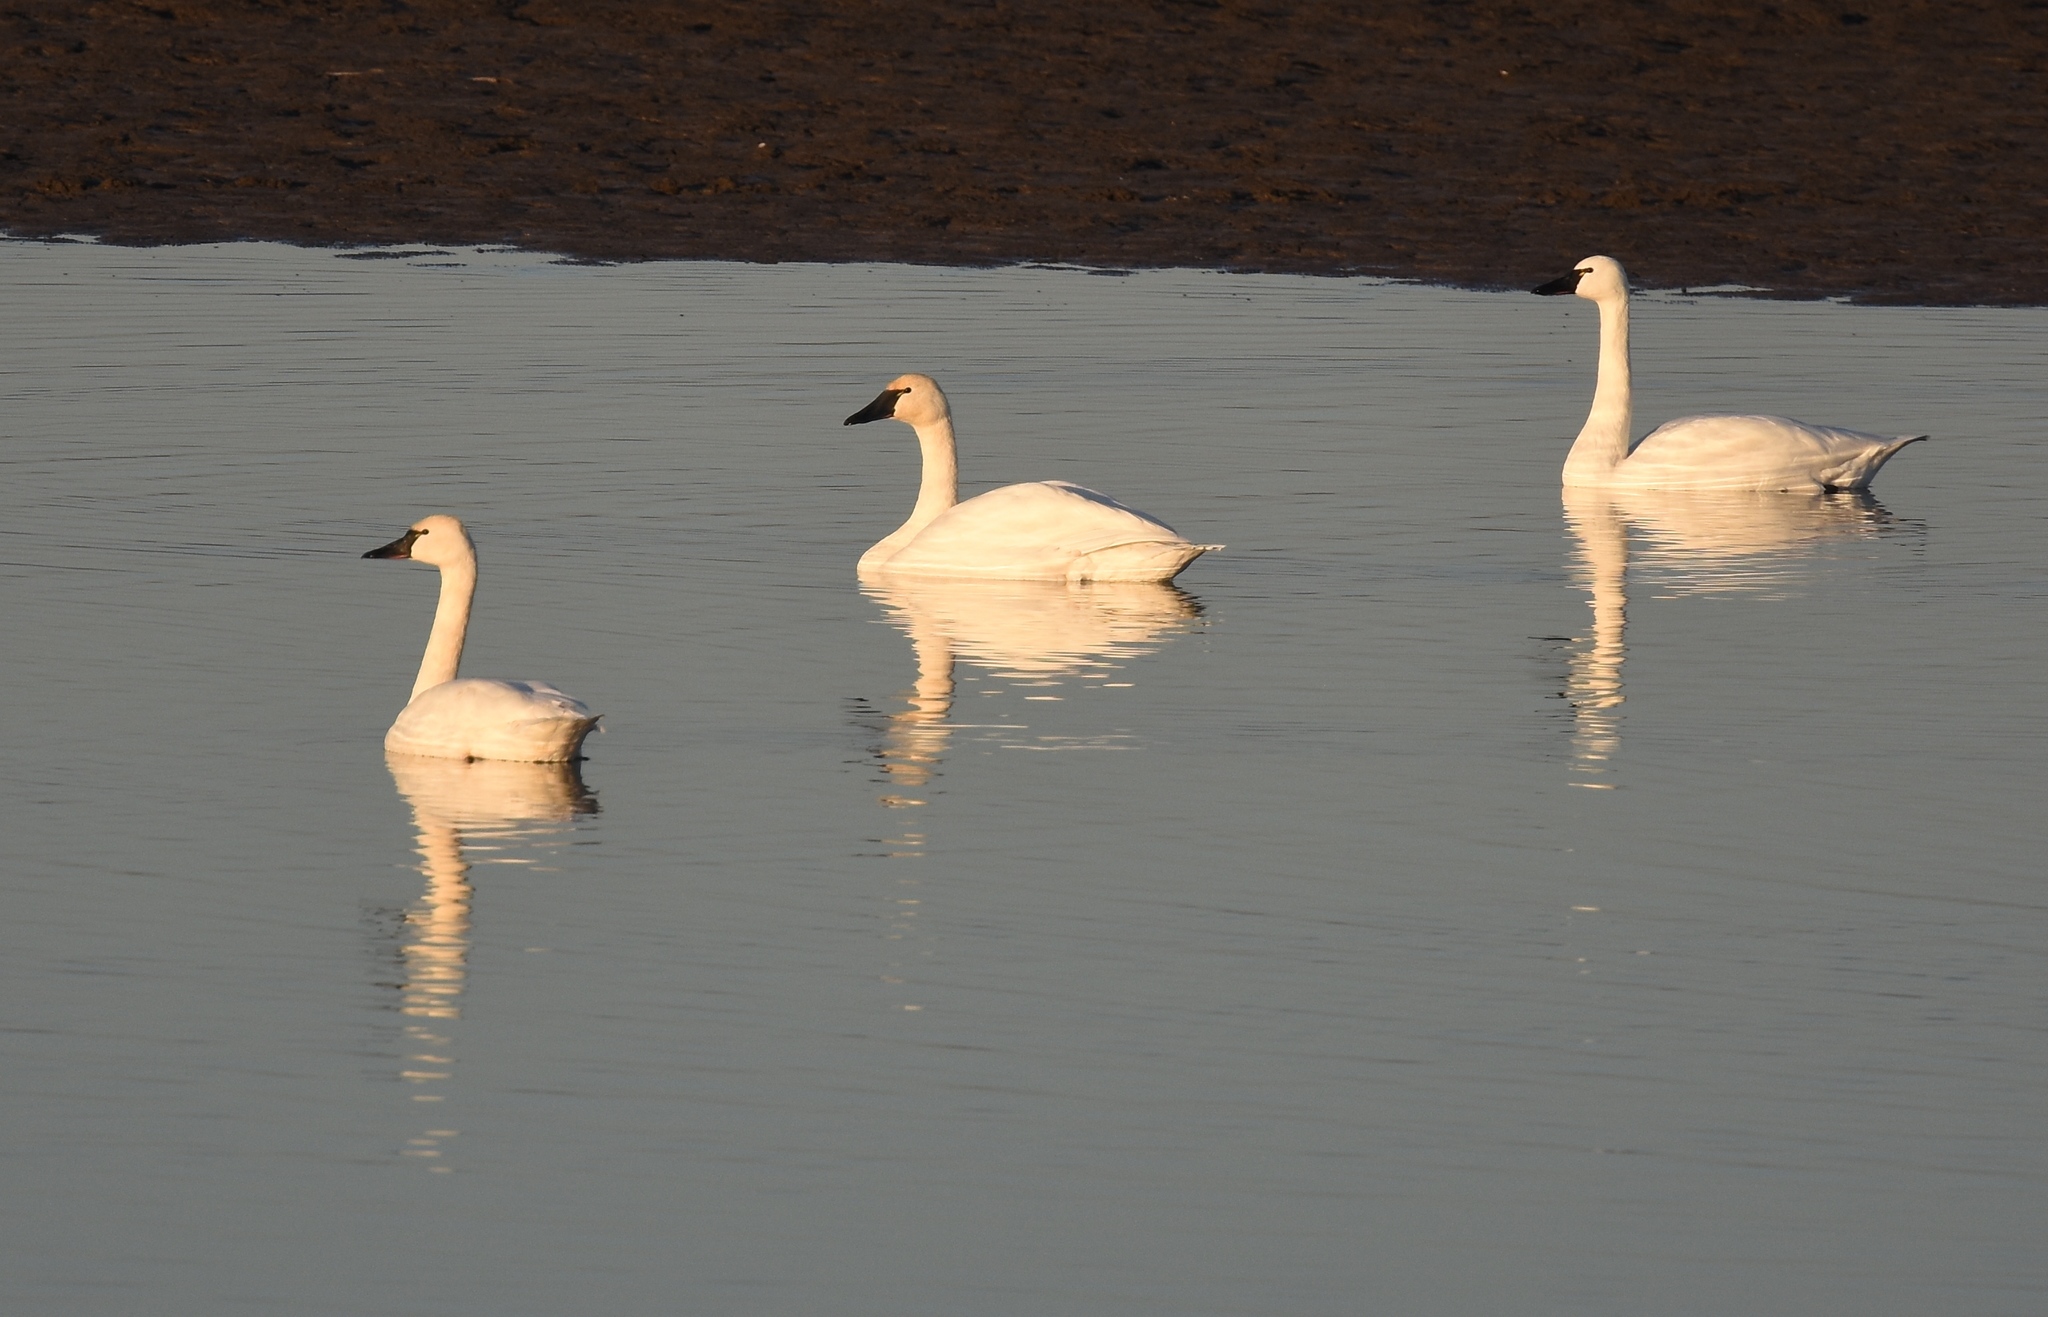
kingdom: Animalia
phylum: Chordata
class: Aves
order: Anseriformes
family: Anatidae
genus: Cygnus
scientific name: Cygnus columbianus
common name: Tundra swan
